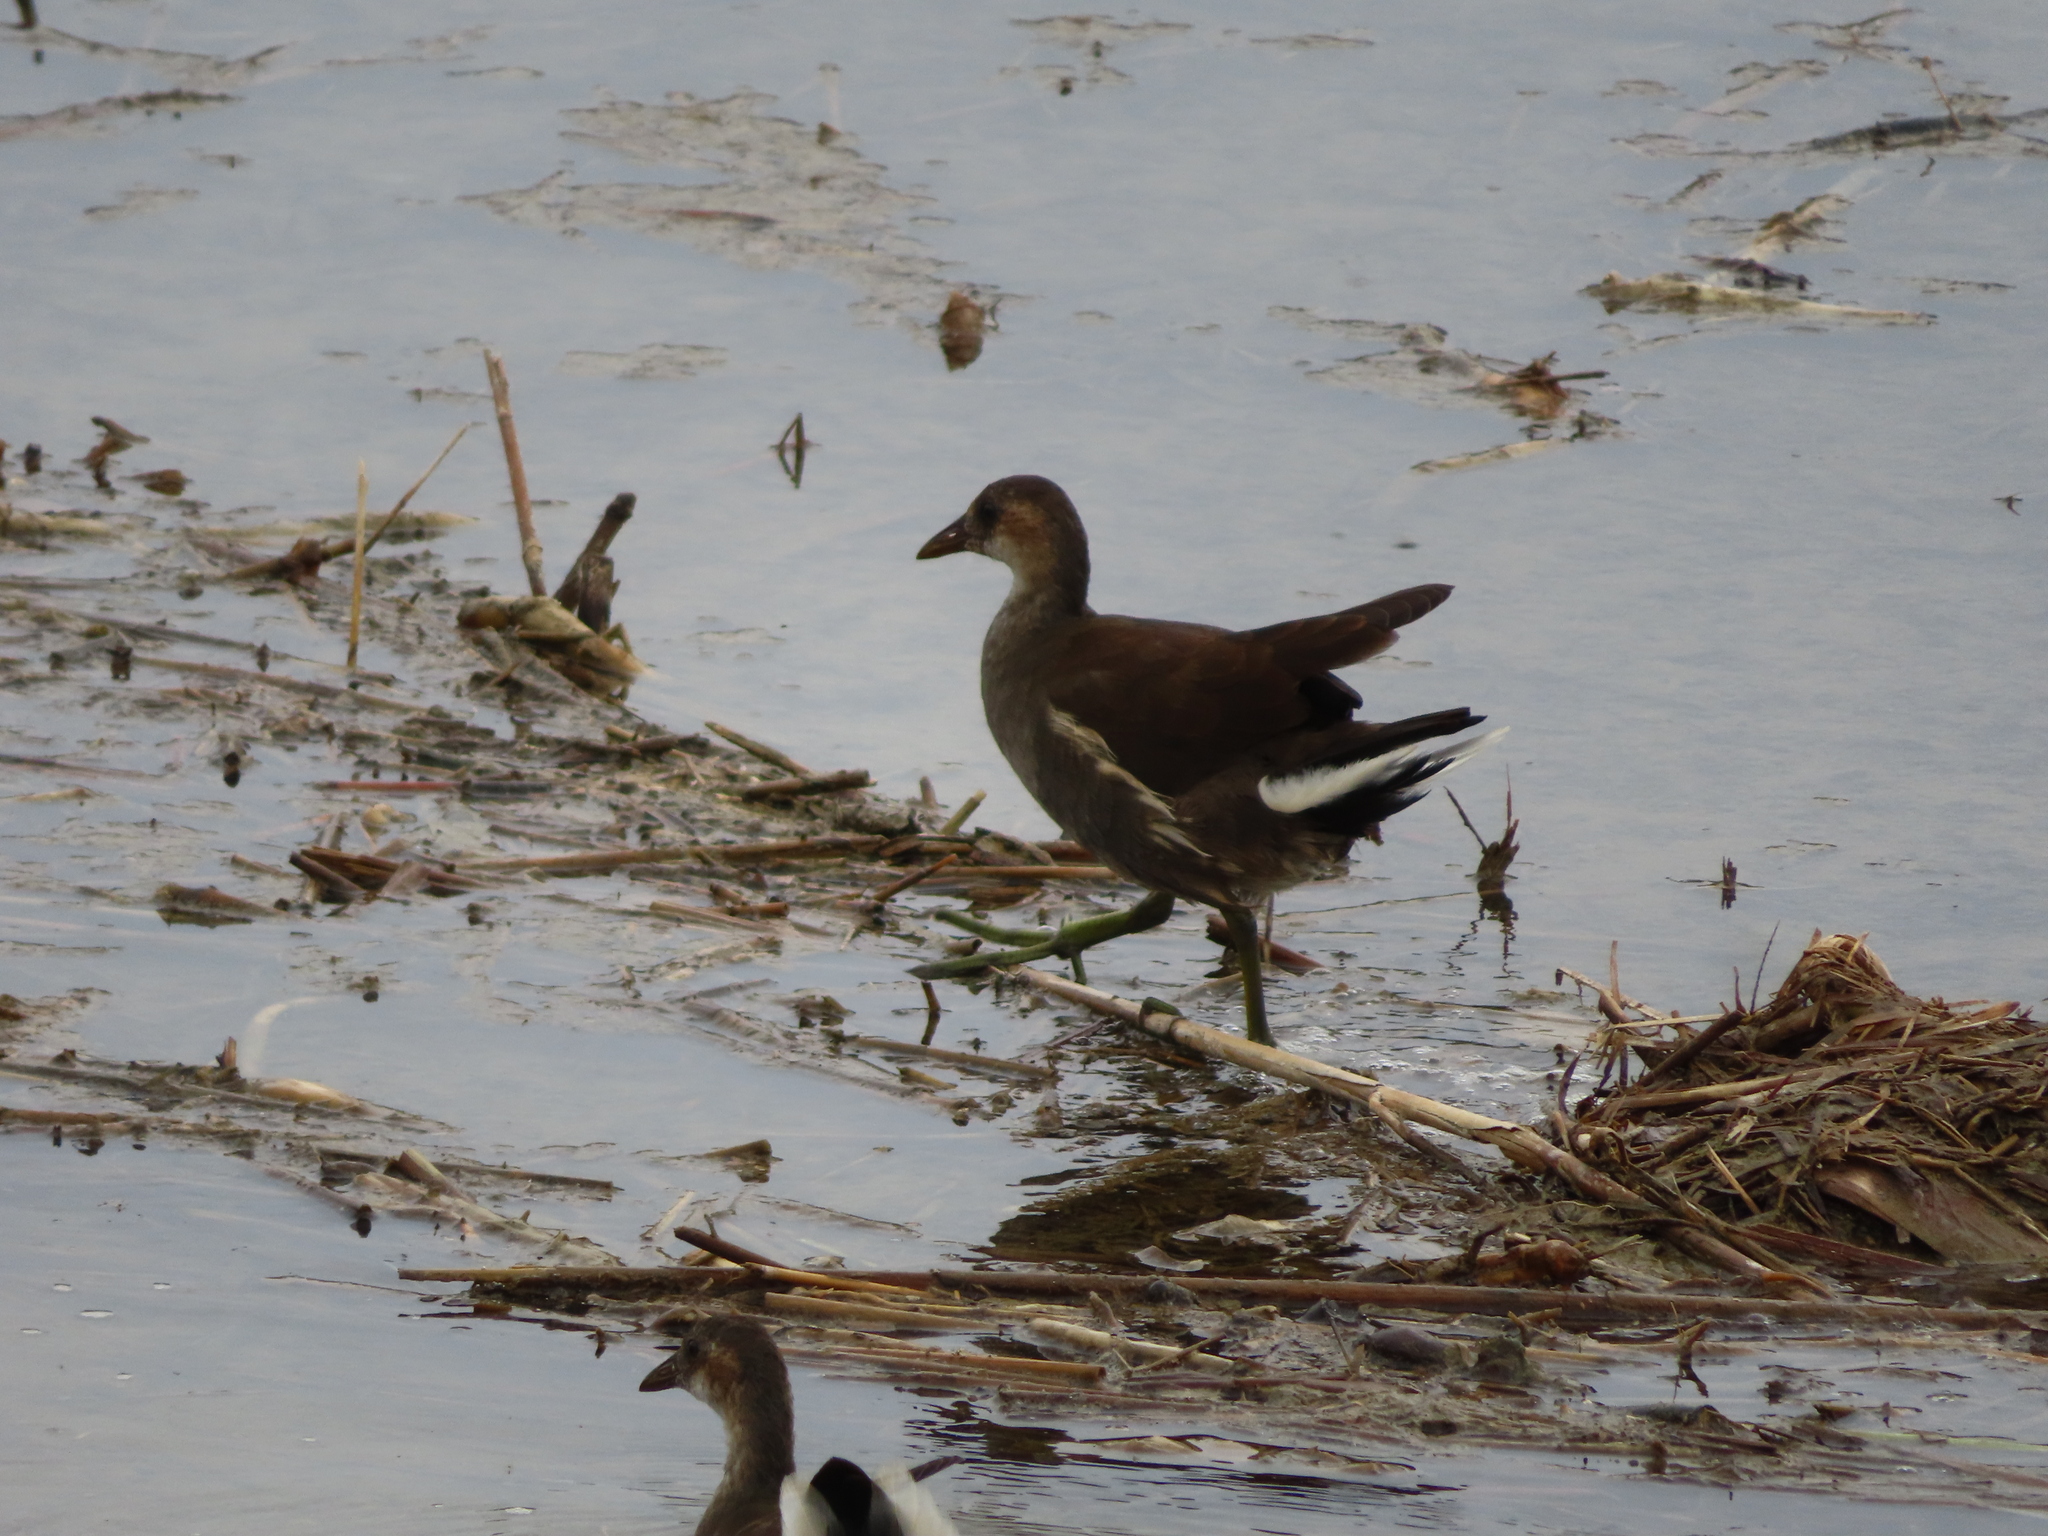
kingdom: Animalia
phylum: Chordata
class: Aves
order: Gruiformes
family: Rallidae
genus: Gallinula
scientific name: Gallinula chloropus
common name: Common moorhen
